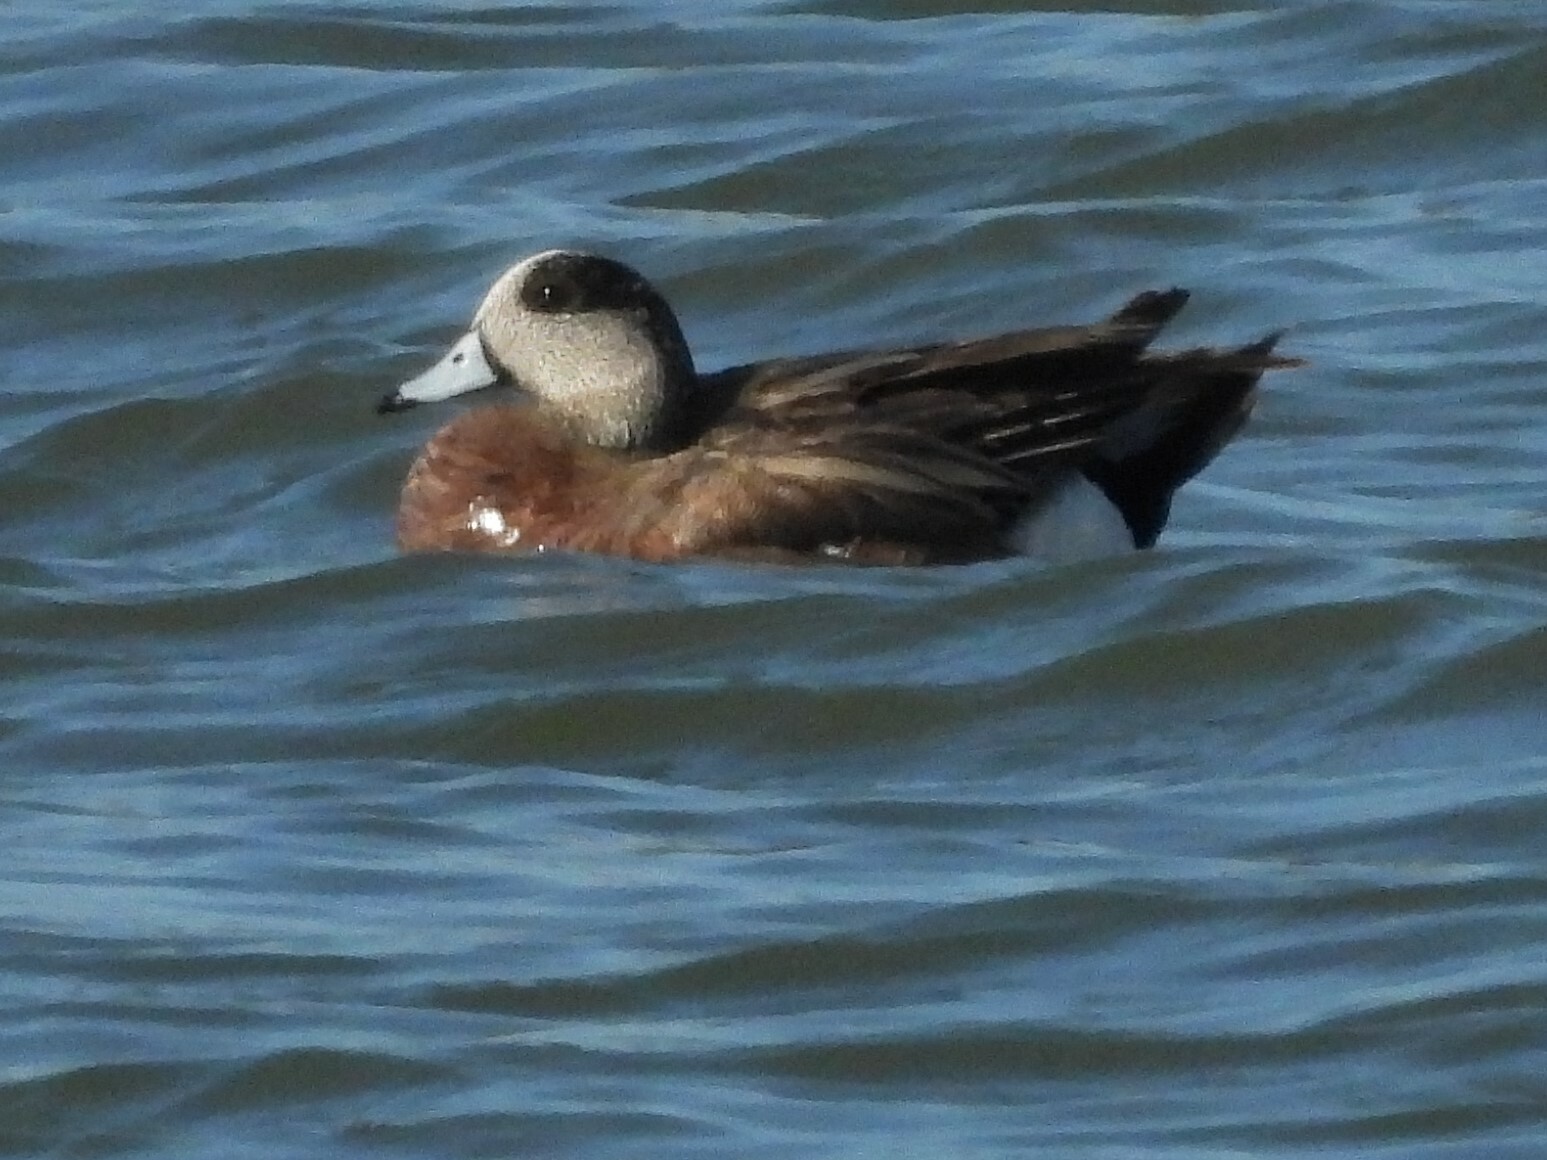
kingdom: Animalia
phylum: Chordata
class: Aves
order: Anseriformes
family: Anatidae
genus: Mareca
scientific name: Mareca americana
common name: American wigeon
